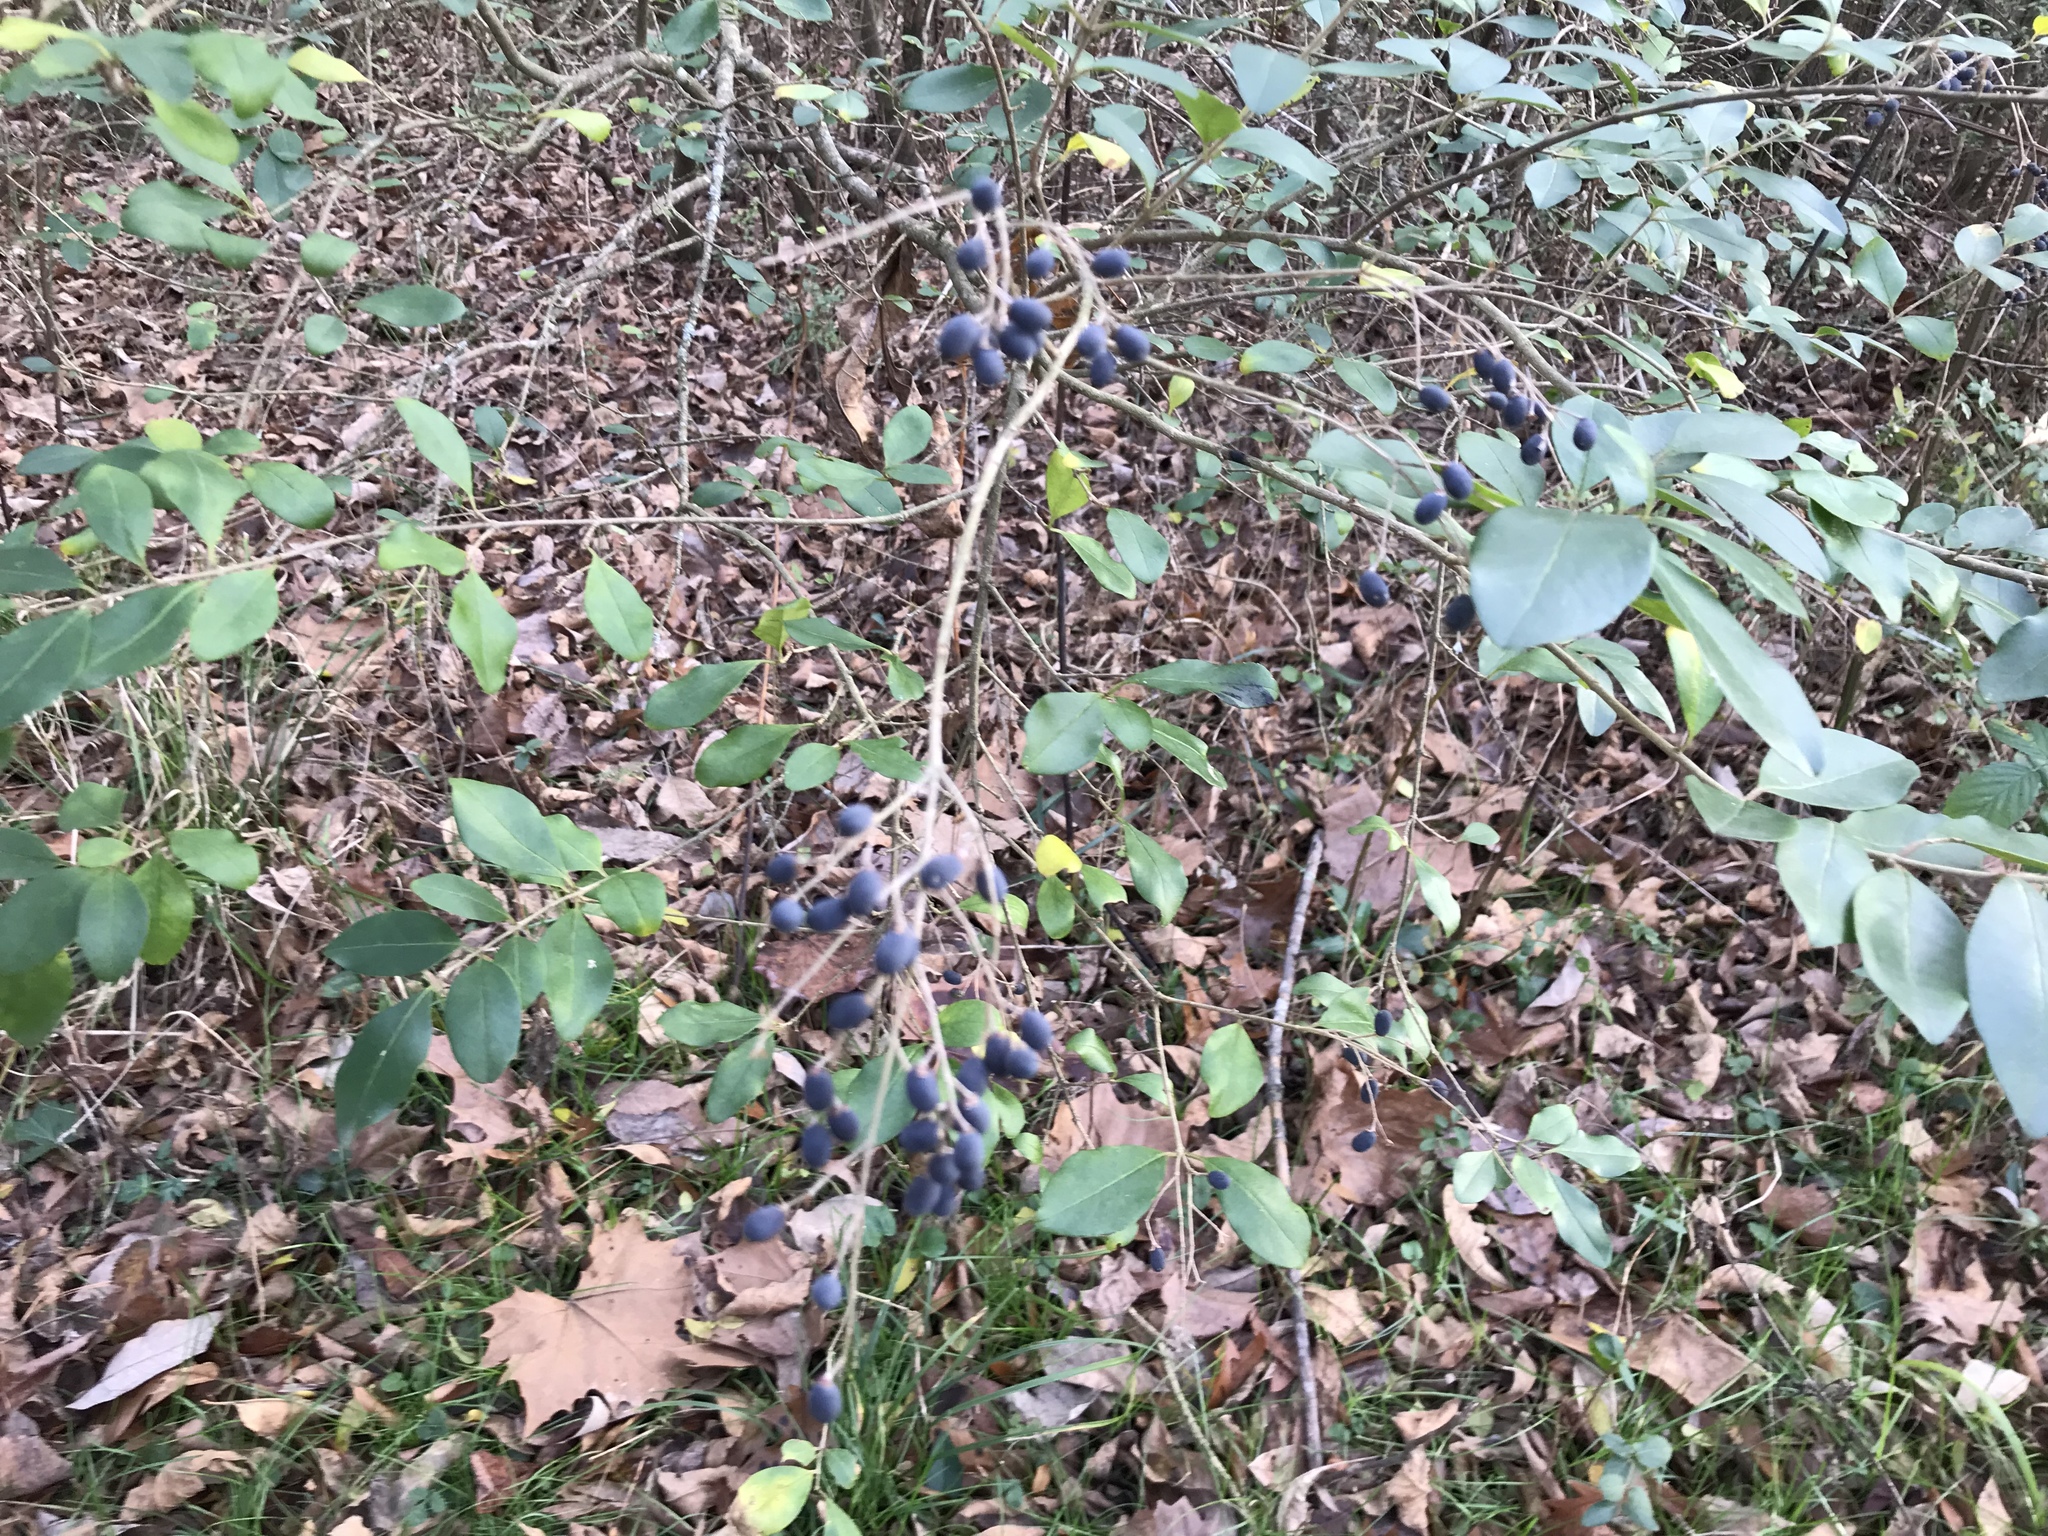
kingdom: Plantae
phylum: Tracheophyta
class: Magnoliopsida
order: Lamiales
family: Oleaceae
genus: Ligustrum
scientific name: Ligustrum sinense
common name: Chinese privet
